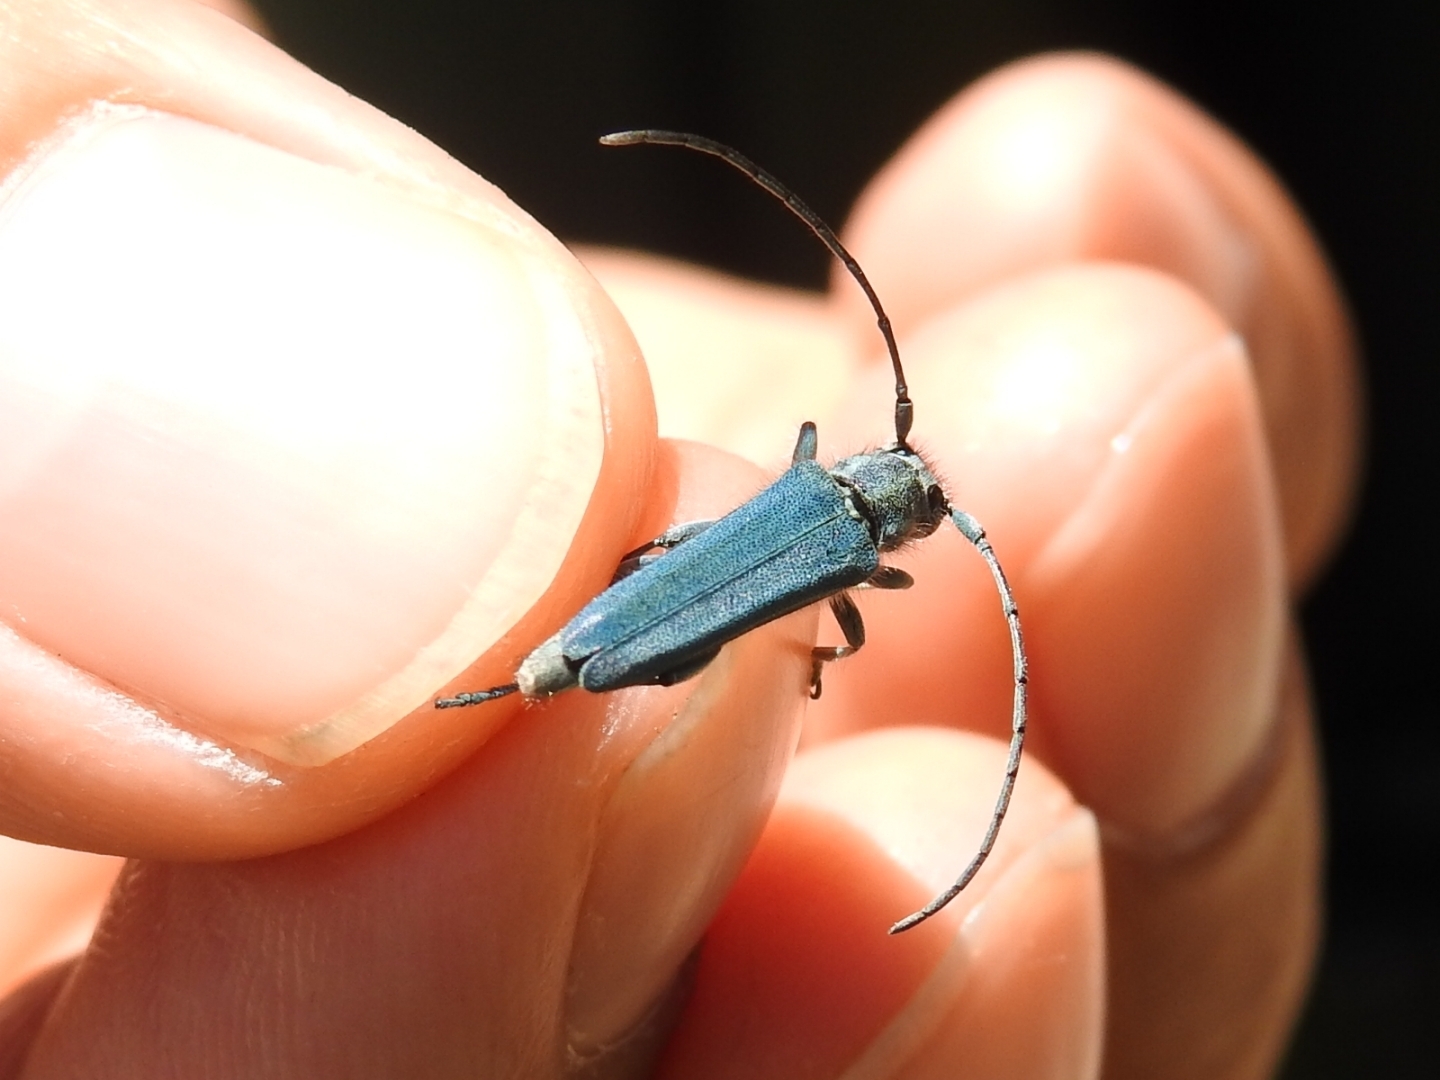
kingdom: Animalia
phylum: Arthropoda
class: Insecta
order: Coleoptera
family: Cerambycidae
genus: Phytoecia
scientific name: Phytoecia coerulescens
